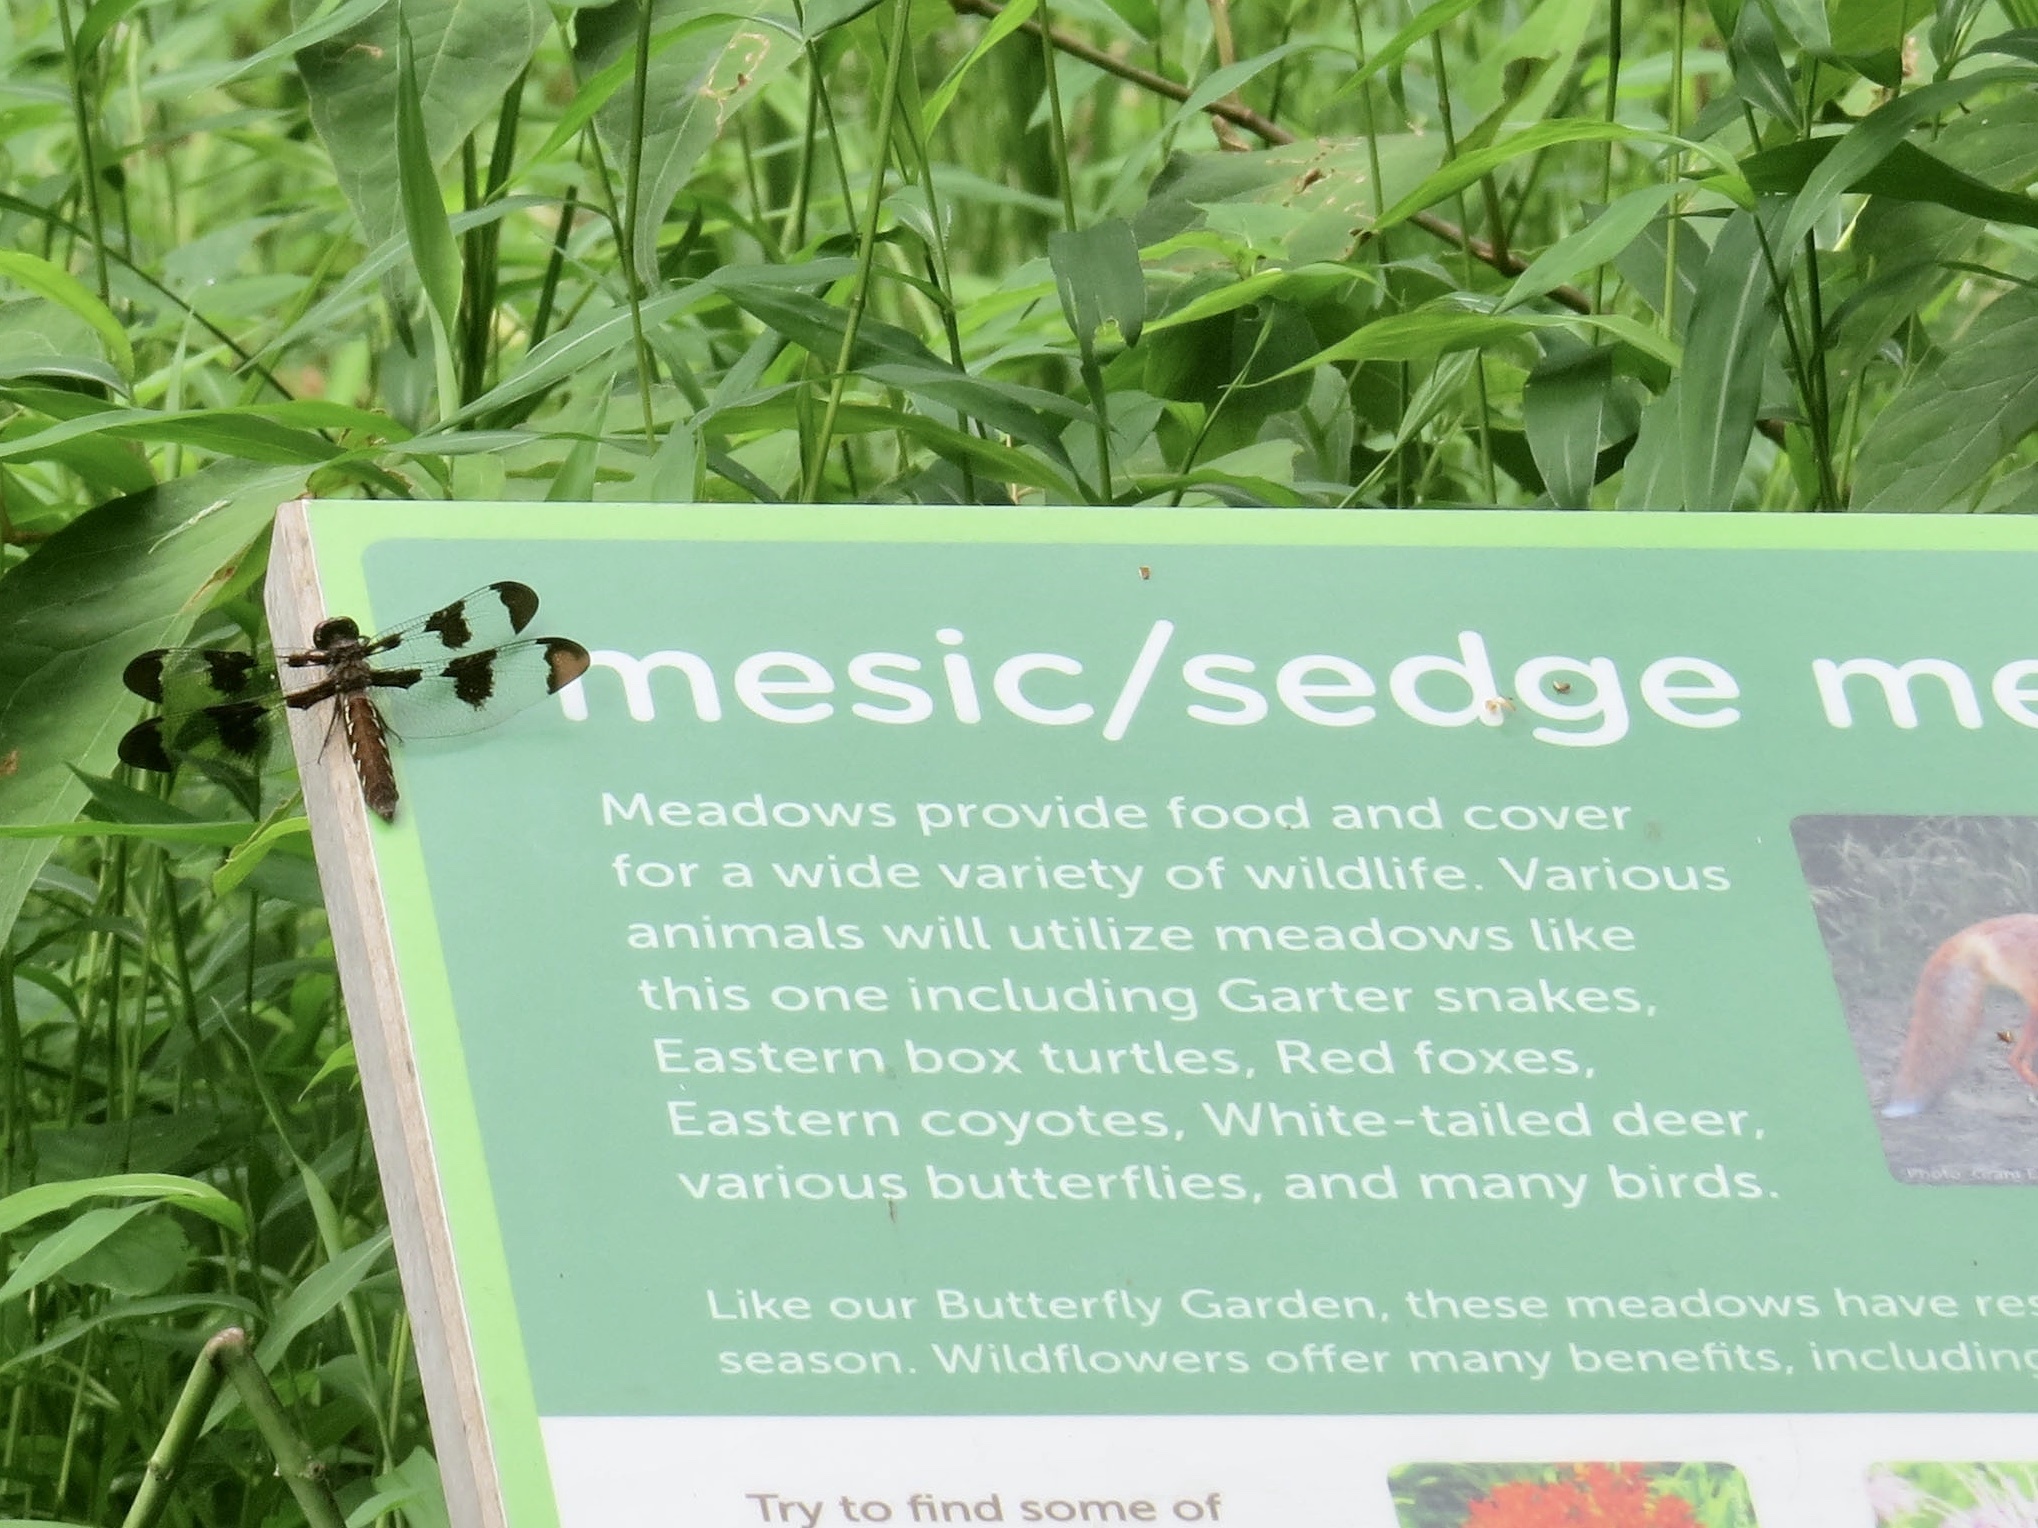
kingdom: Animalia
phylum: Arthropoda
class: Insecta
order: Odonata
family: Libellulidae
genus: Plathemis
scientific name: Plathemis lydia
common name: Common whitetail
